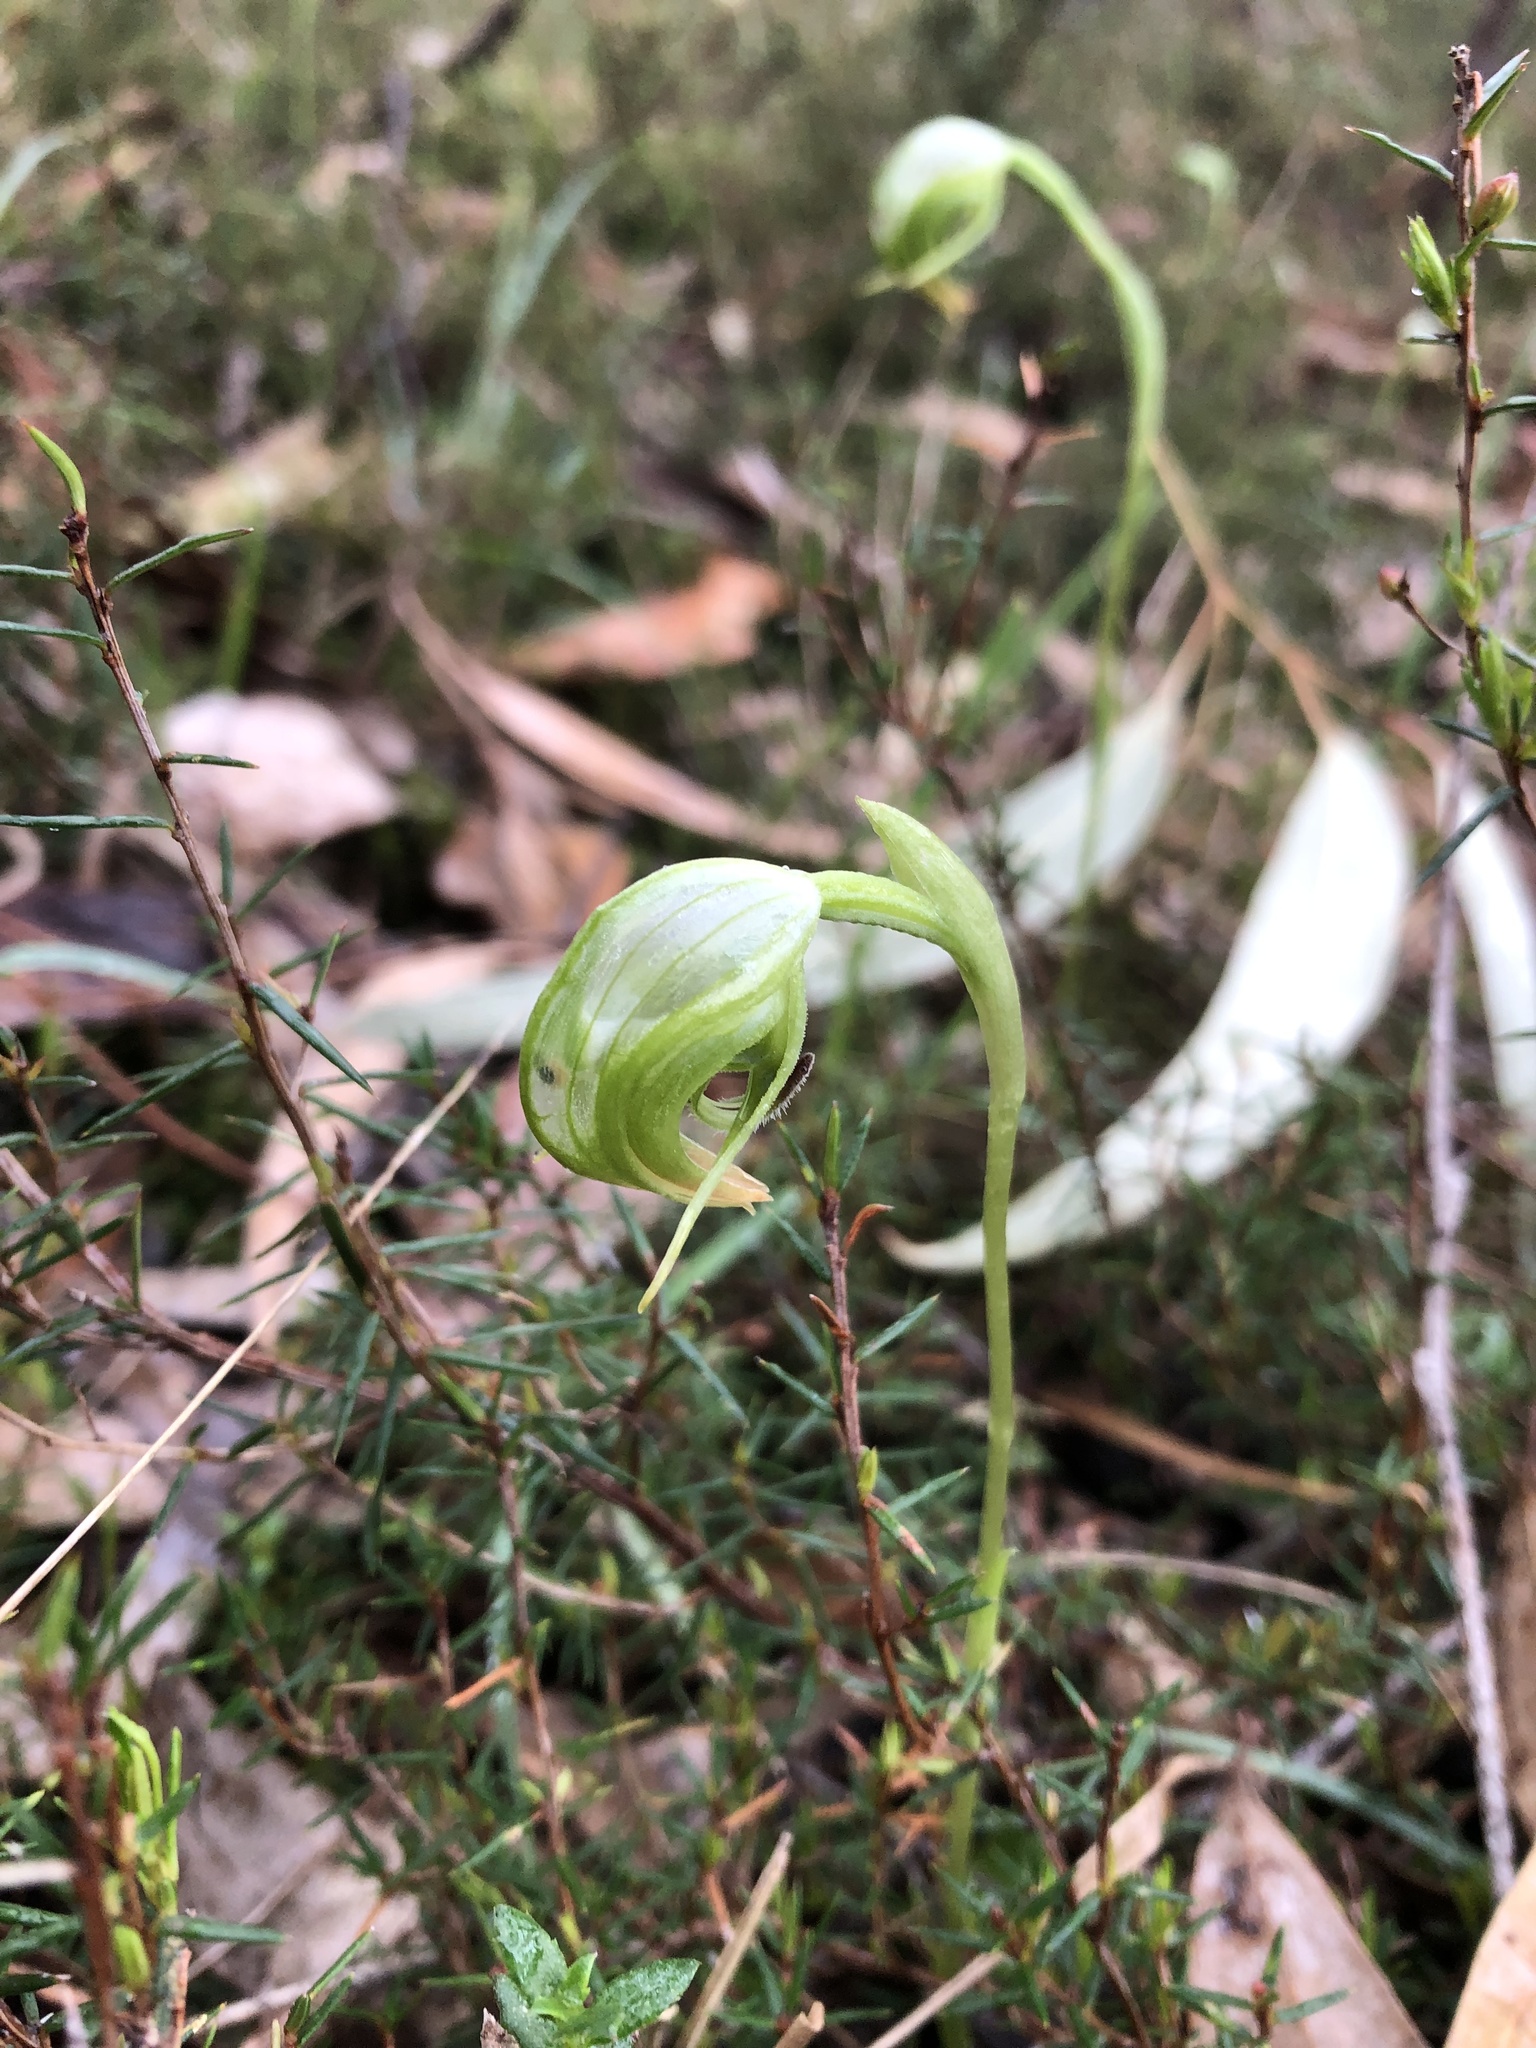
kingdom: Plantae
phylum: Tracheophyta
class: Liliopsida
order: Asparagales
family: Orchidaceae
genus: Pterostylis
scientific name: Pterostylis nutans
